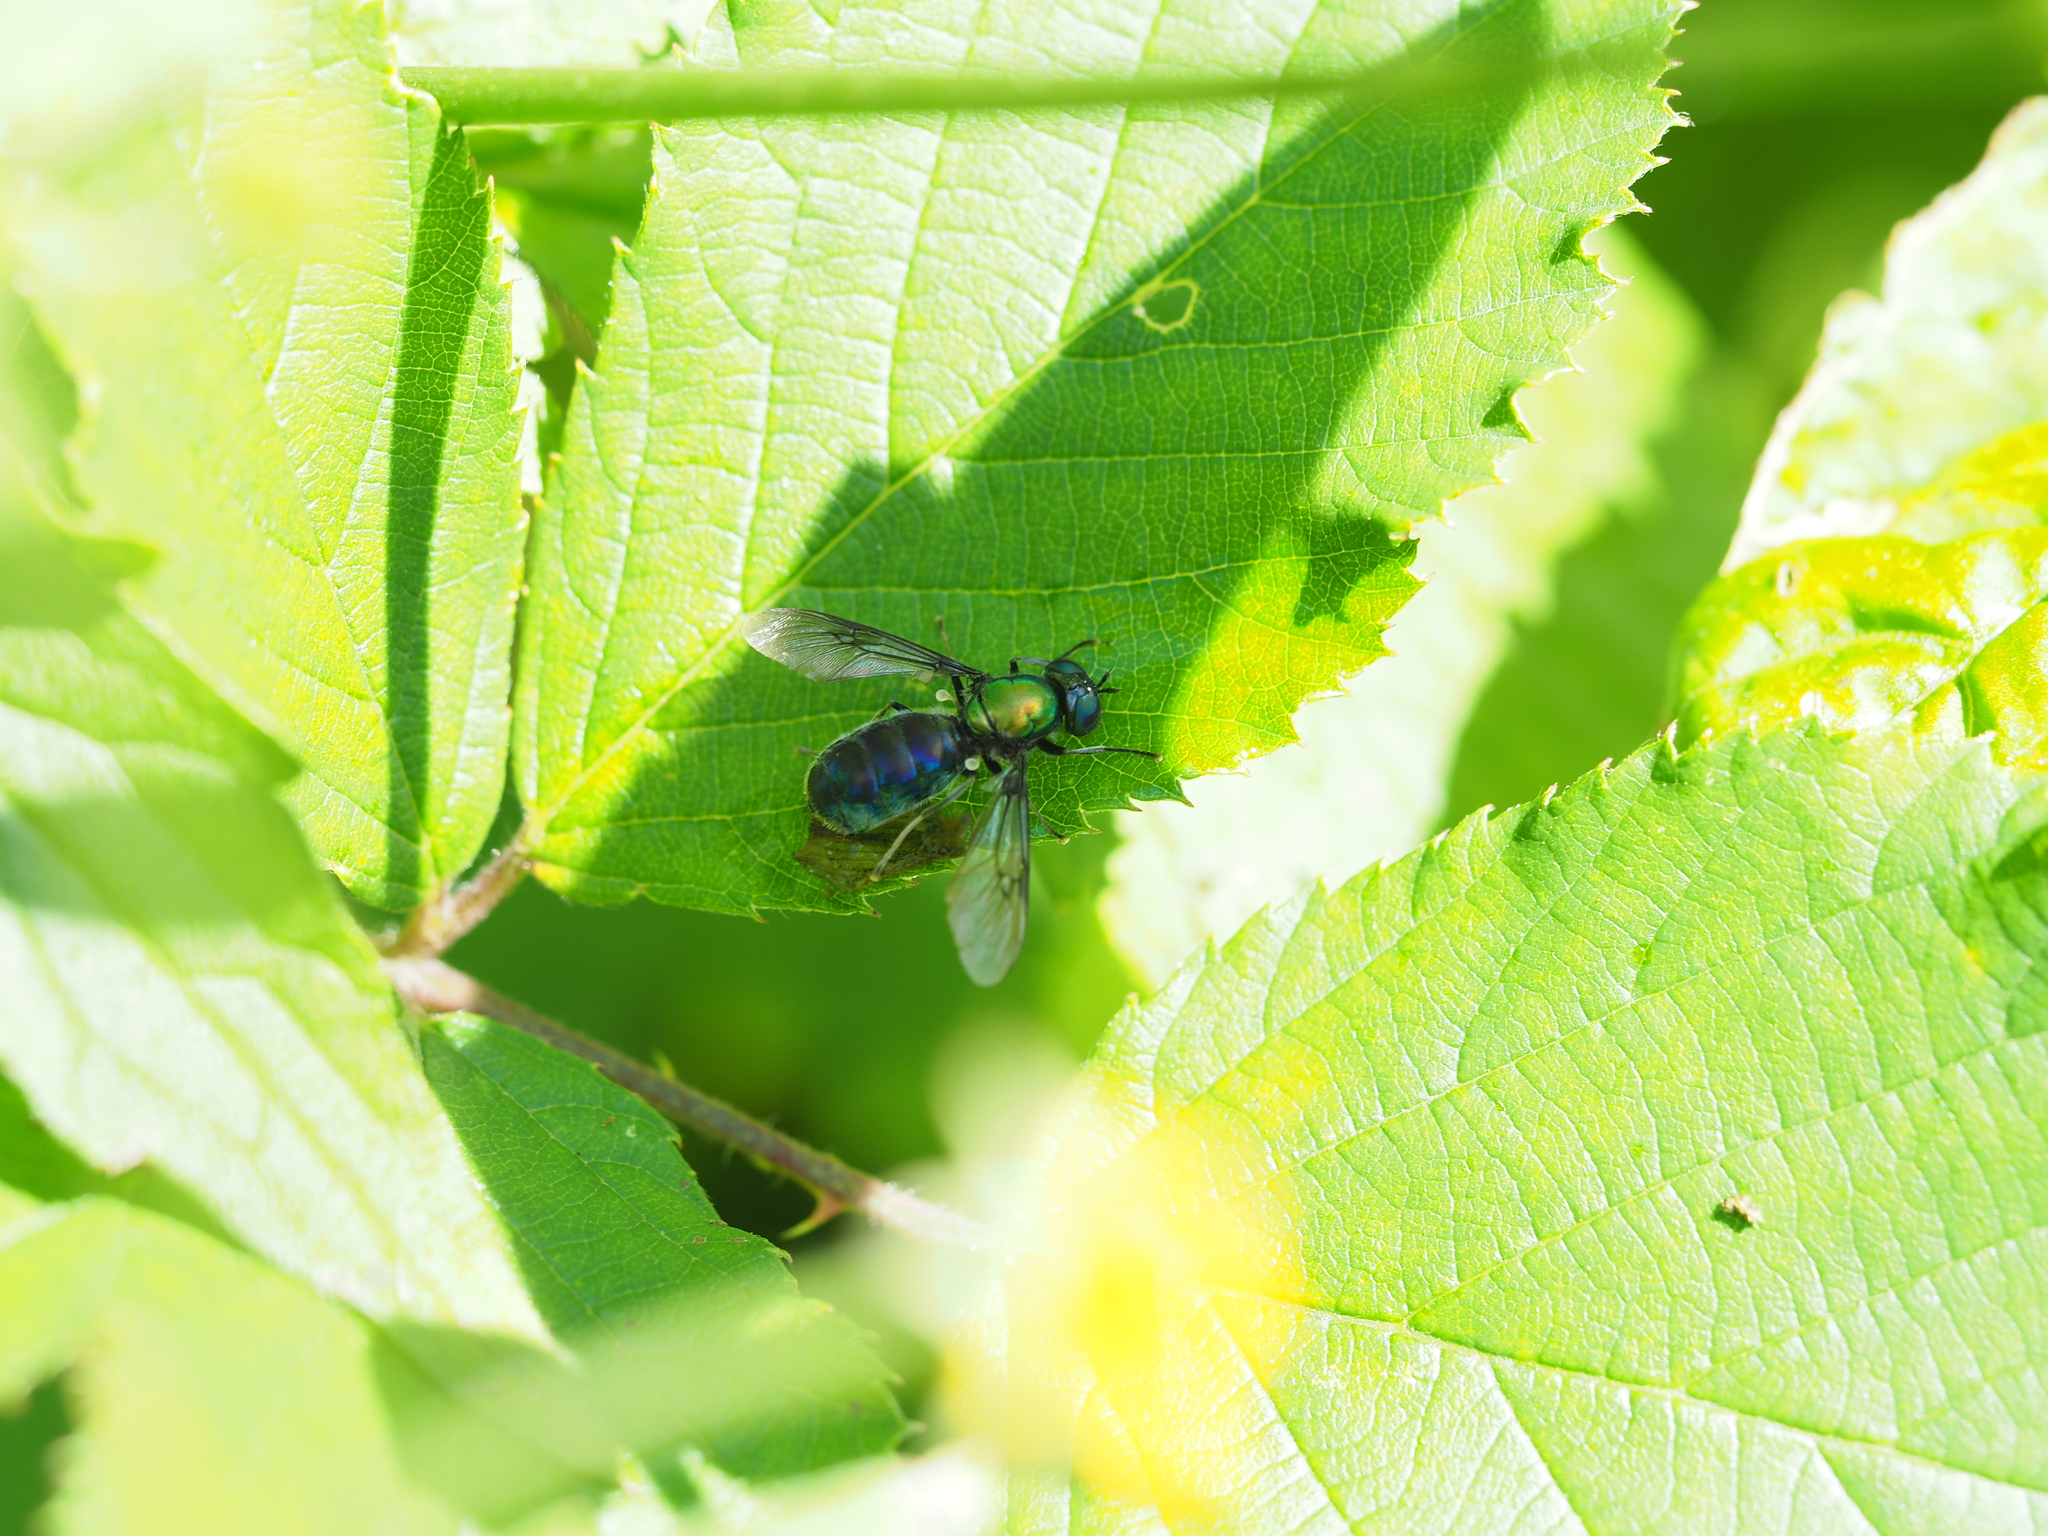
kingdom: Animalia
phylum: Arthropoda
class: Insecta
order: Diptera
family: Stratiomyidae
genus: Chloromyia
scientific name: Chloromyia speciosa
